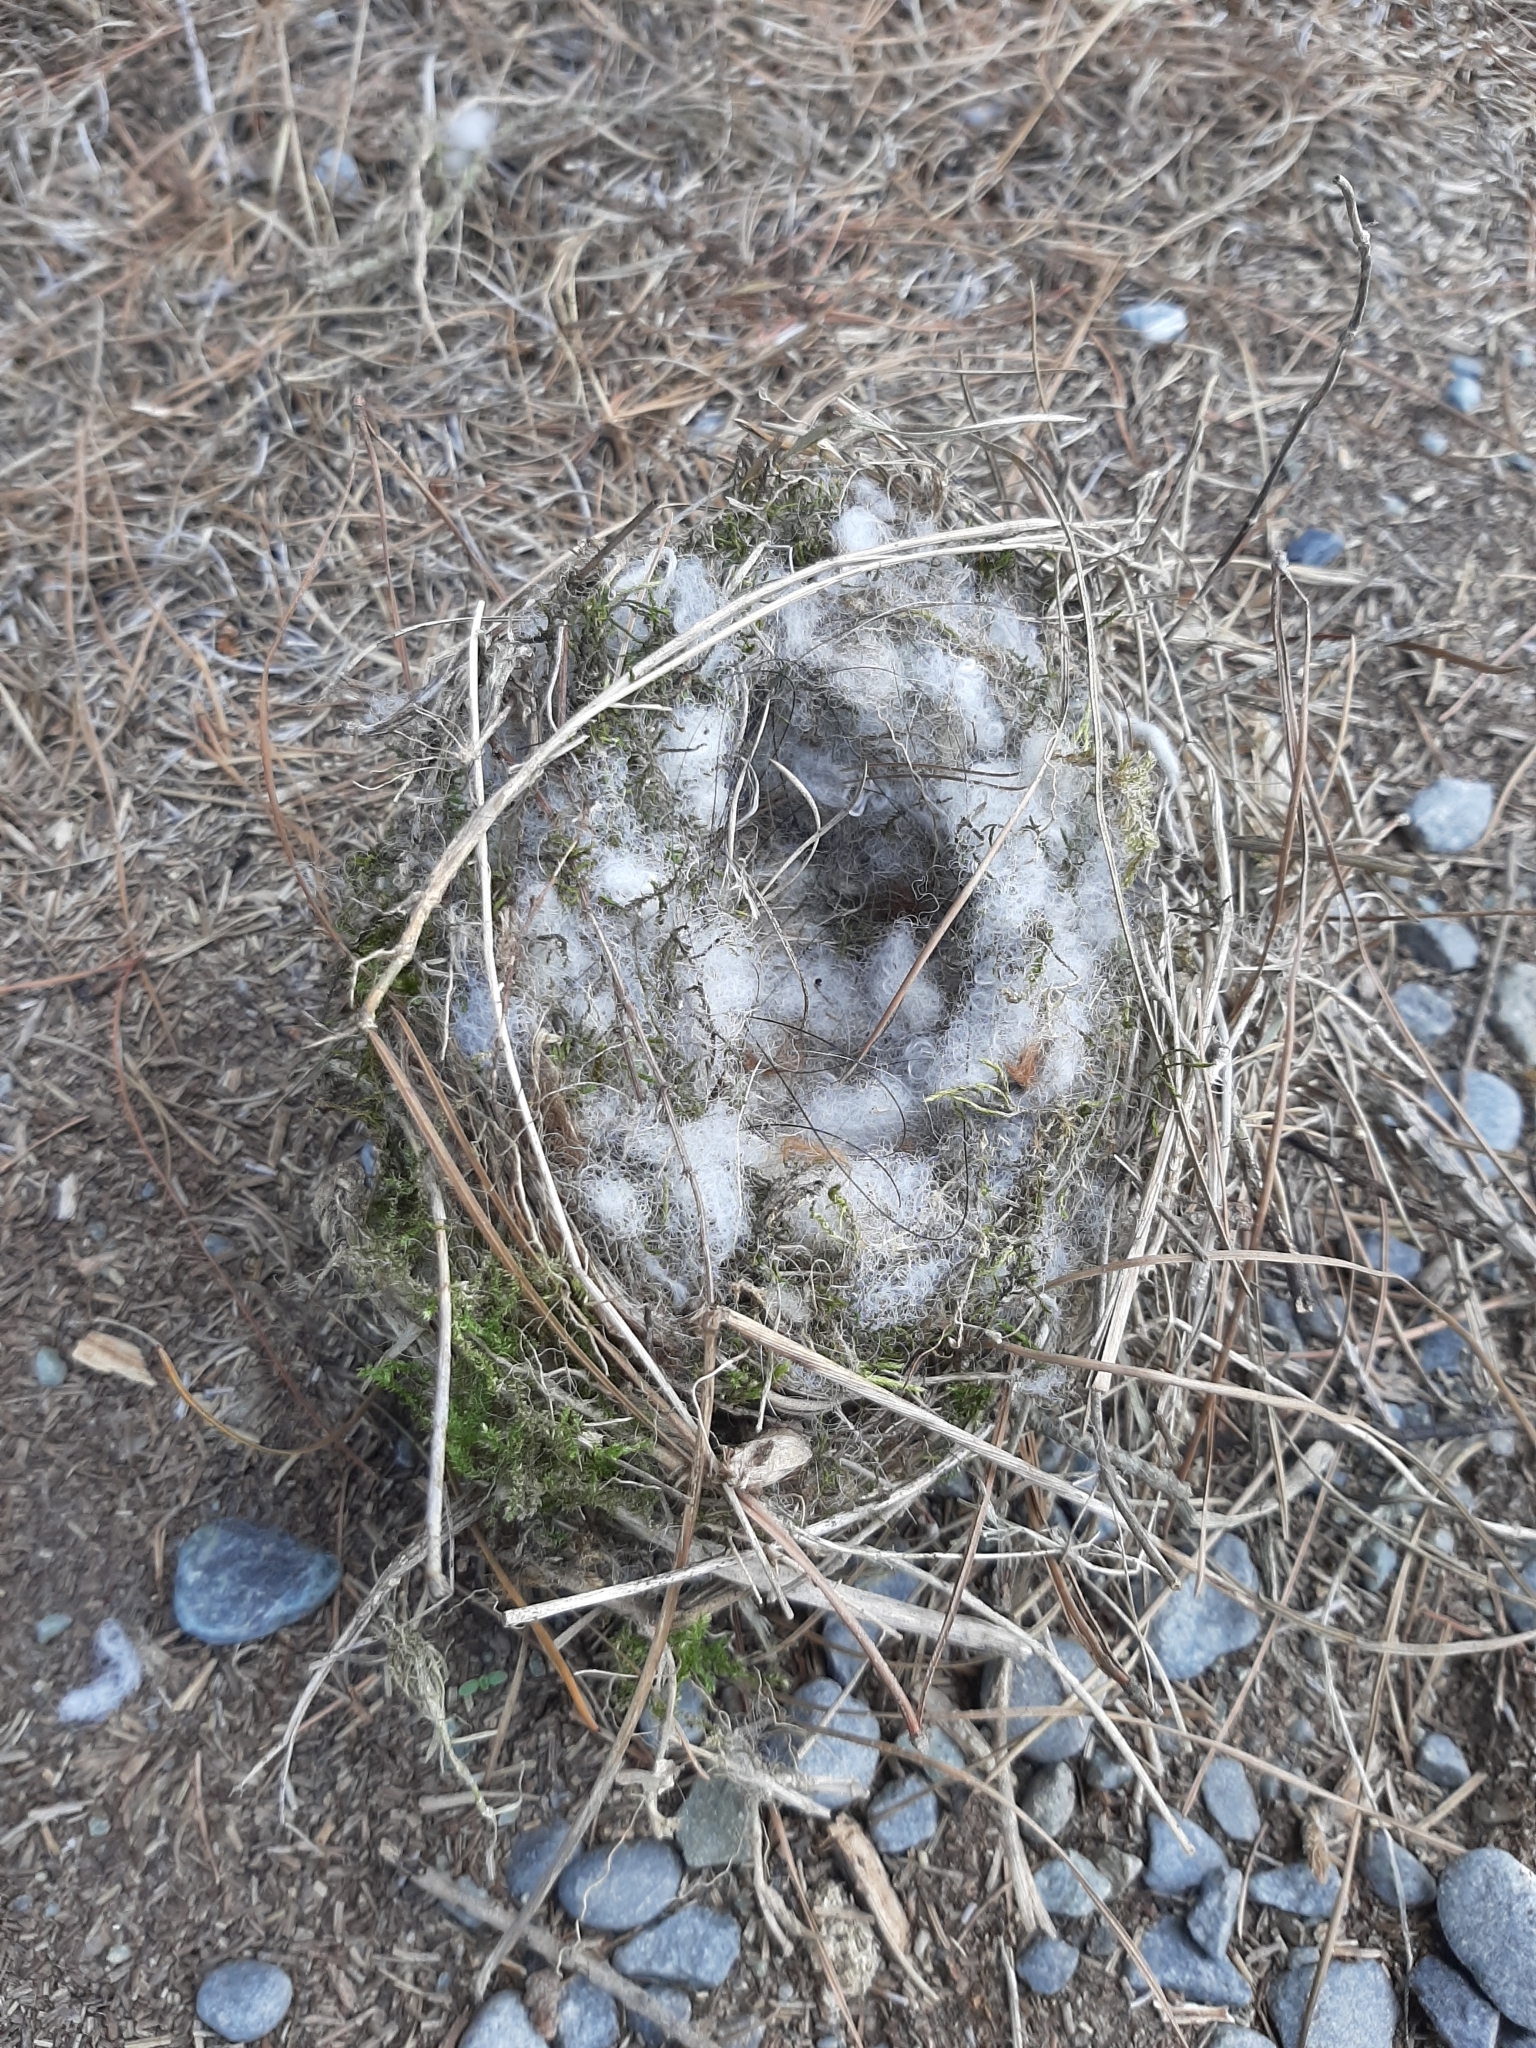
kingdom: Animalia
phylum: Chordata
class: Aves
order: Passeriformes
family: Passeridae
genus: Passer
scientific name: Passer domesticus
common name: House sparrow
